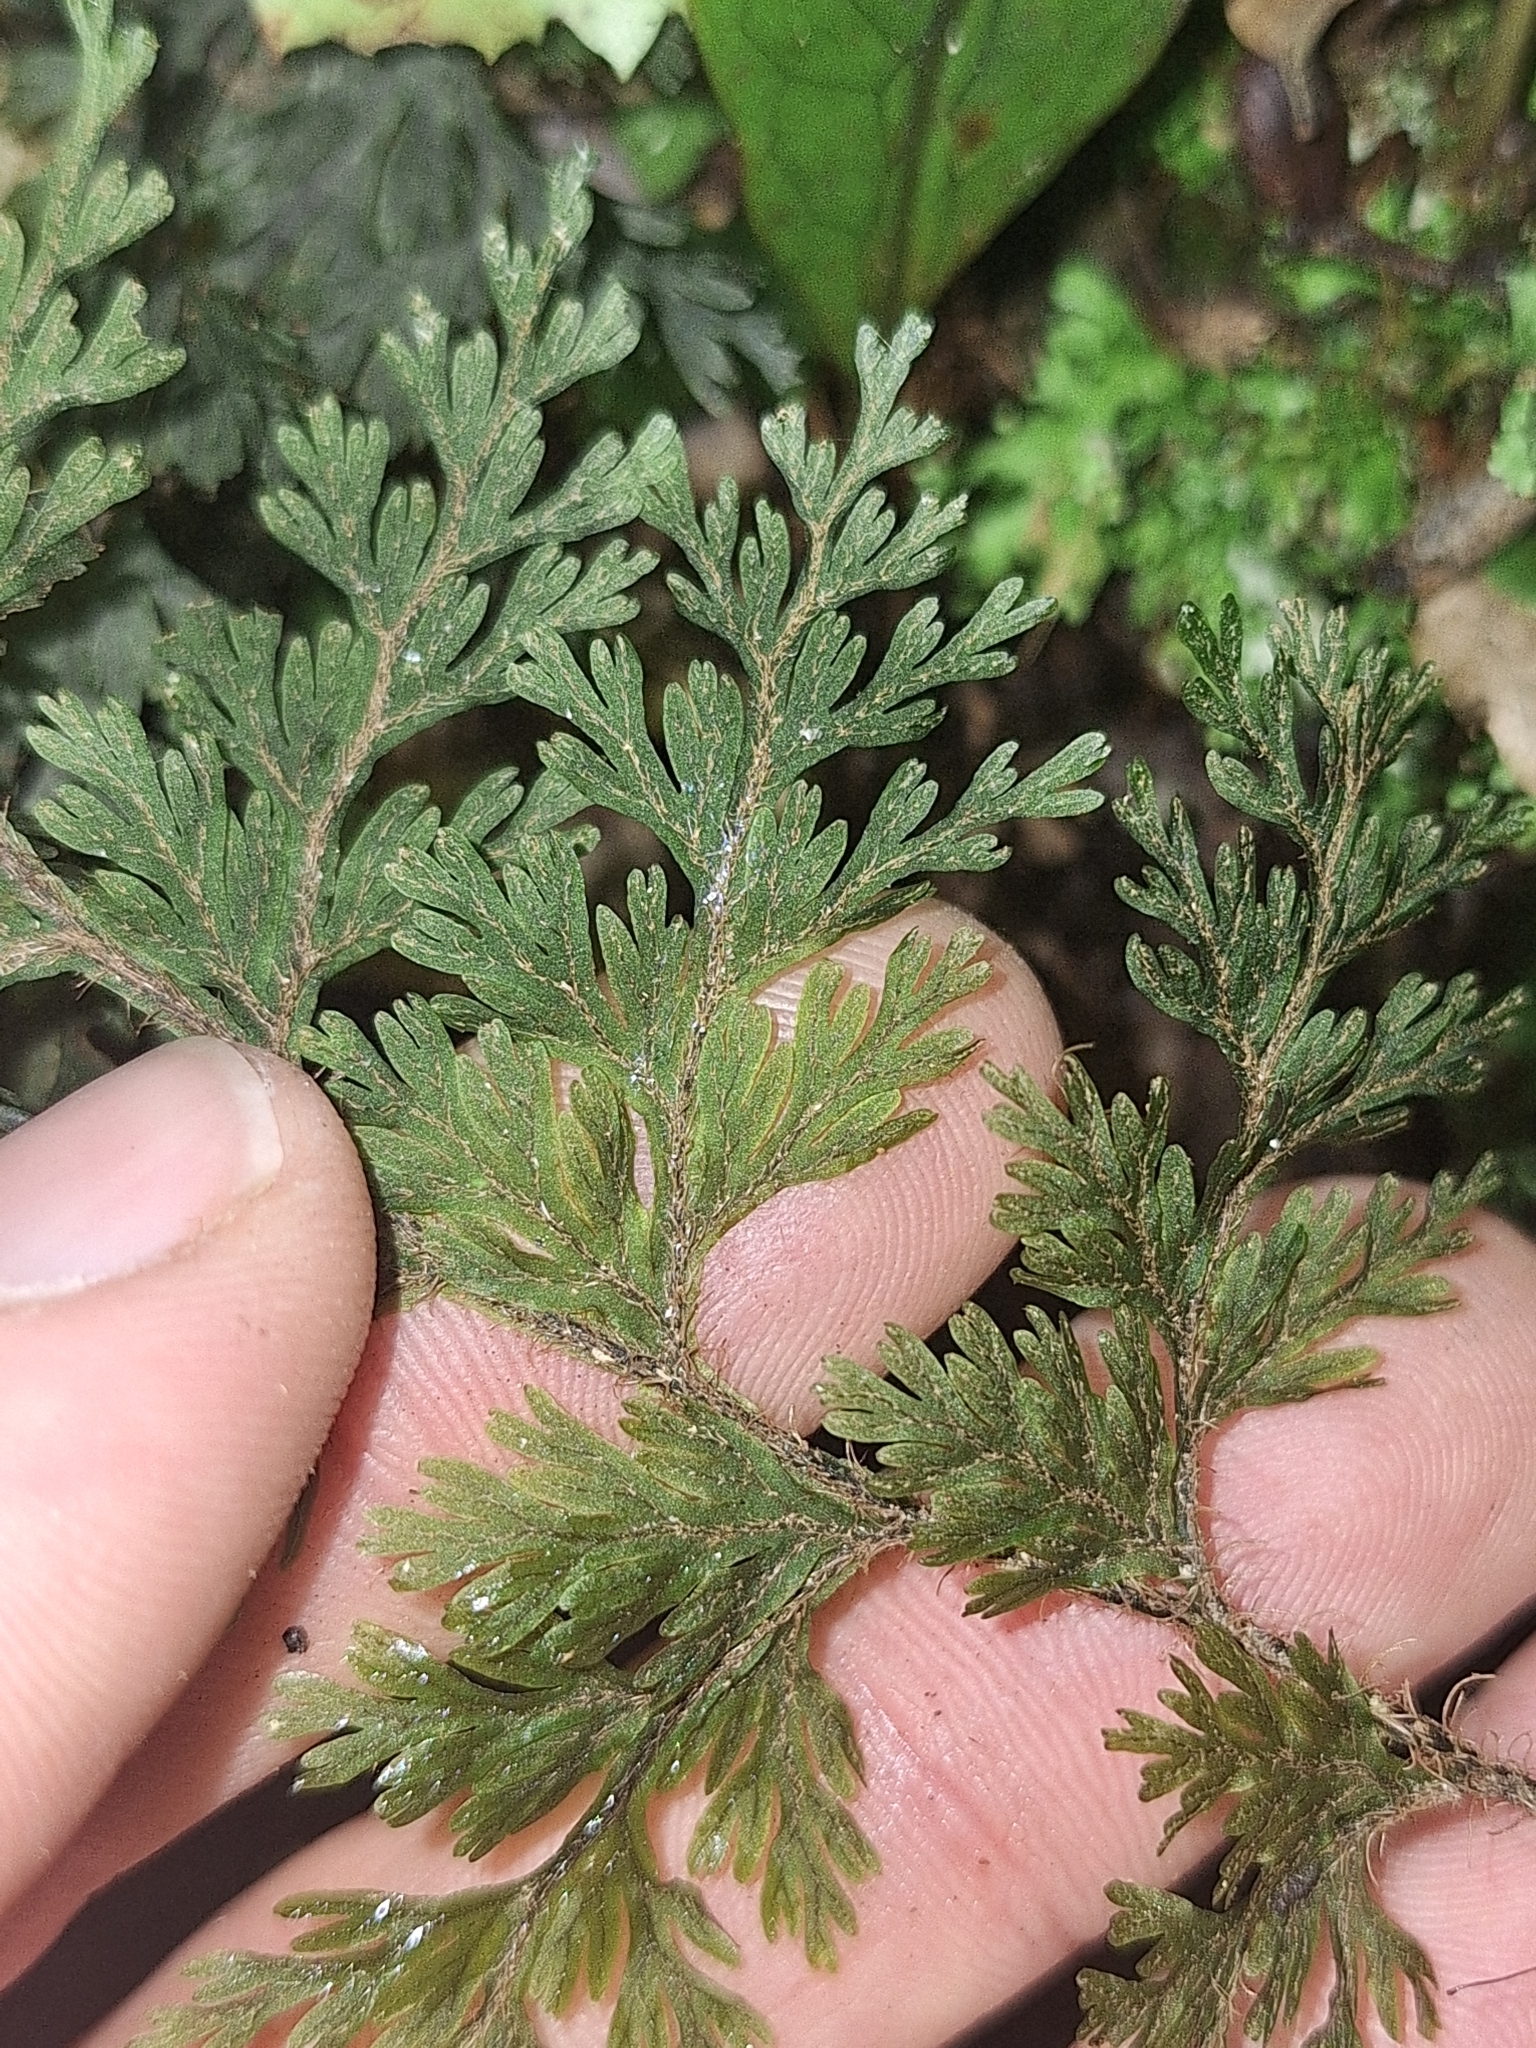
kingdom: Plantae
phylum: Tracheophyta
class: Polypodiopsida
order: Hymenophyllales
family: Hymenophyllaceae
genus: Hymenophyllum
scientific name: Hymenophyllum scabrum
